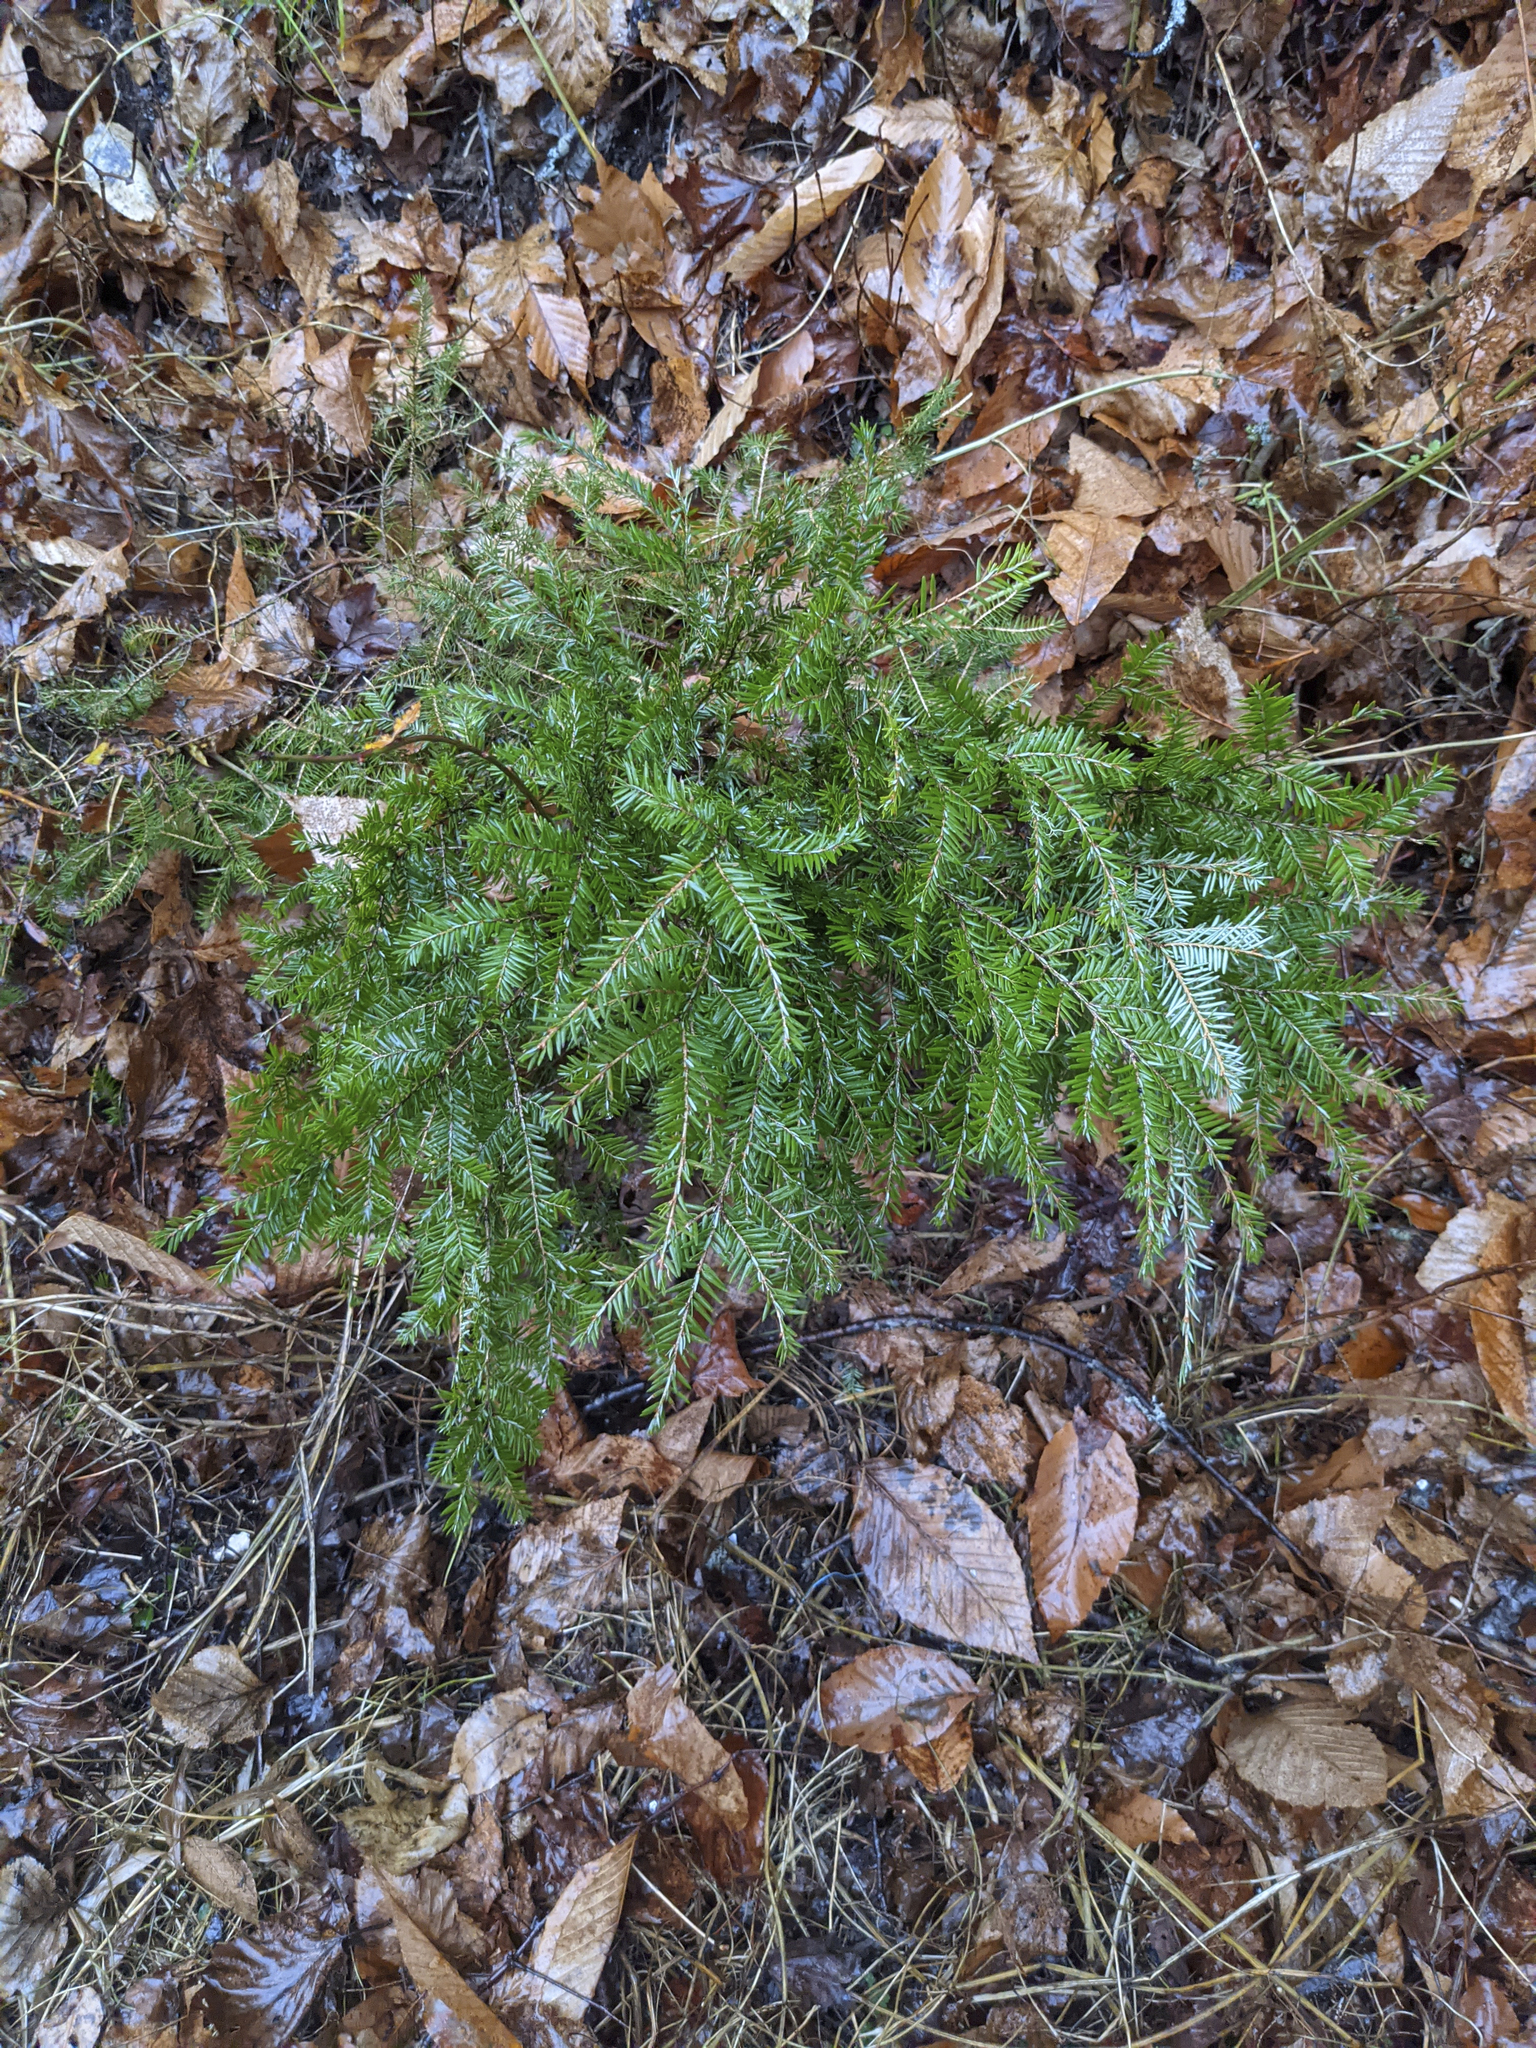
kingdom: Plantae
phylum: Tracheophyta
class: Pinopsida
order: Pinales
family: Pinaceae
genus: Tsuga
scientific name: Tsuga canadensis
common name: Eastern hemlock
